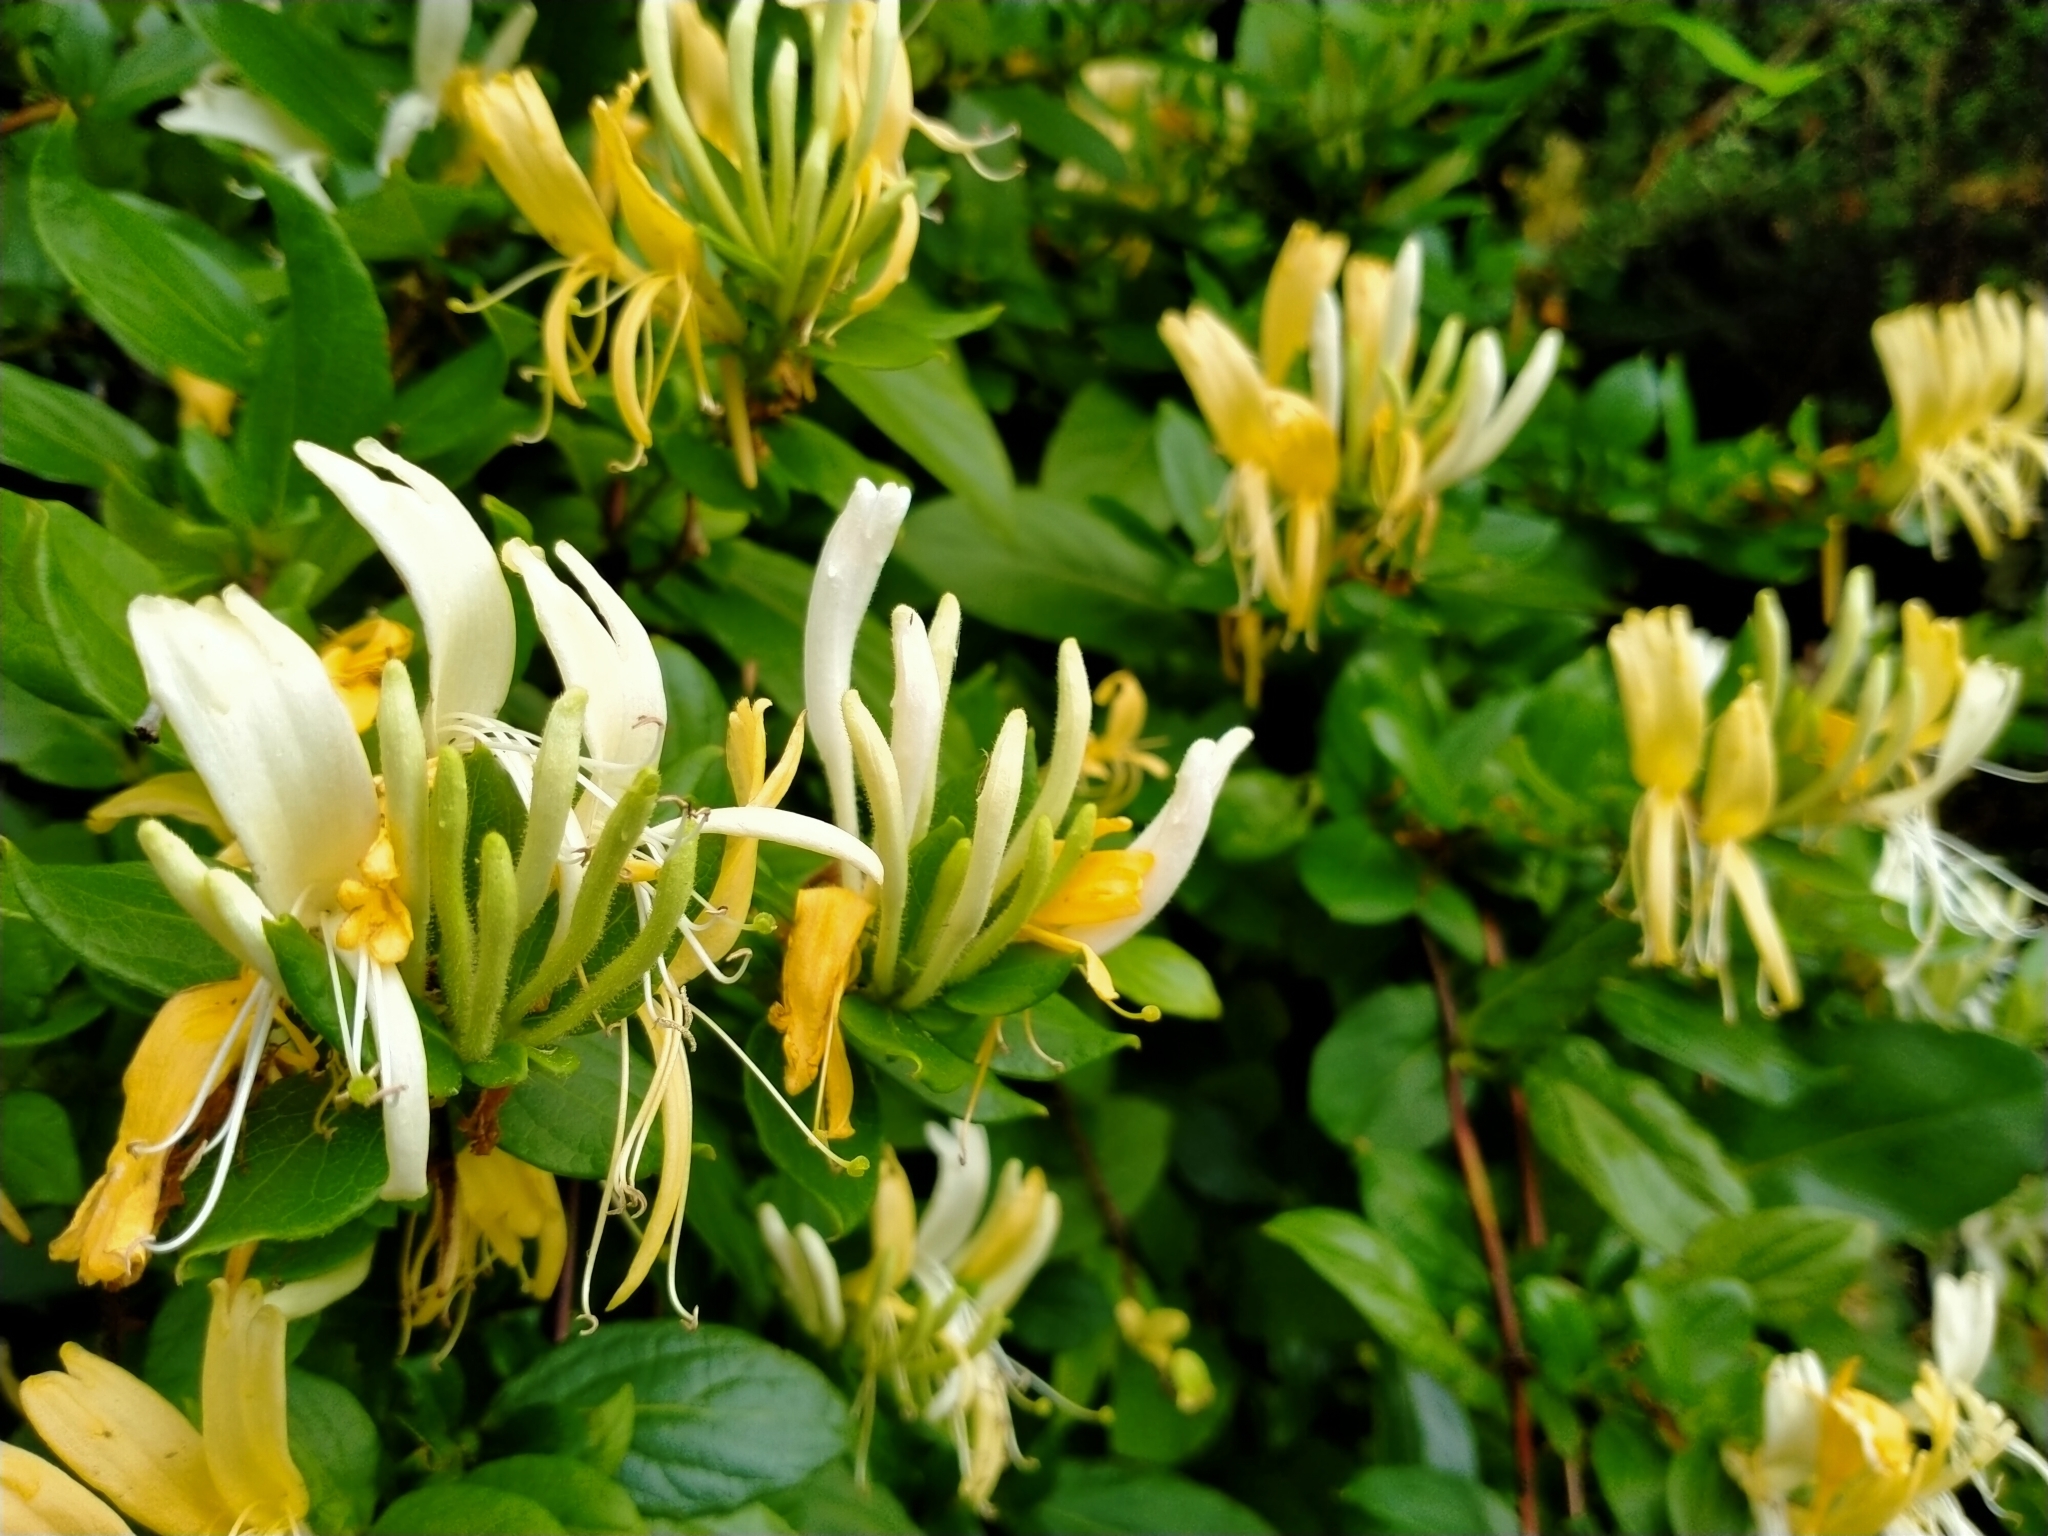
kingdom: Plantae
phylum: Tracheophyta
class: Magnoliopsida
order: Dipsacales
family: Caprifoliaceae
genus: Lonicera
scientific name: Lonicera japonica
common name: Japanese honeysuckle
